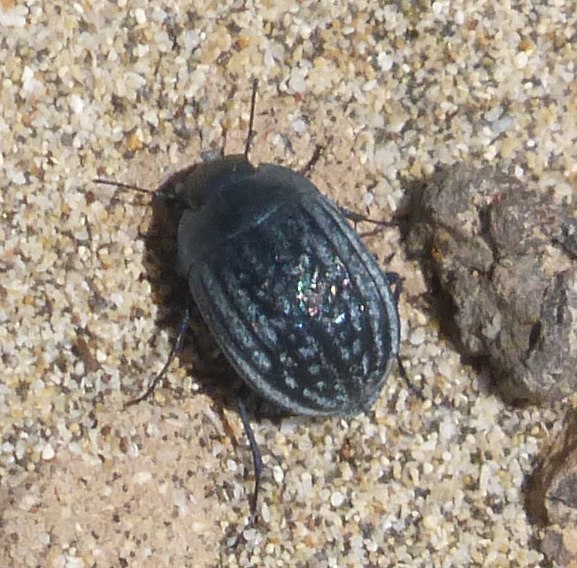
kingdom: Animalia
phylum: Arthropoda
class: Insecta
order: Coleoptera
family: Tenebrionidae
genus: Zophosis
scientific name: Zophosis bicarinata
